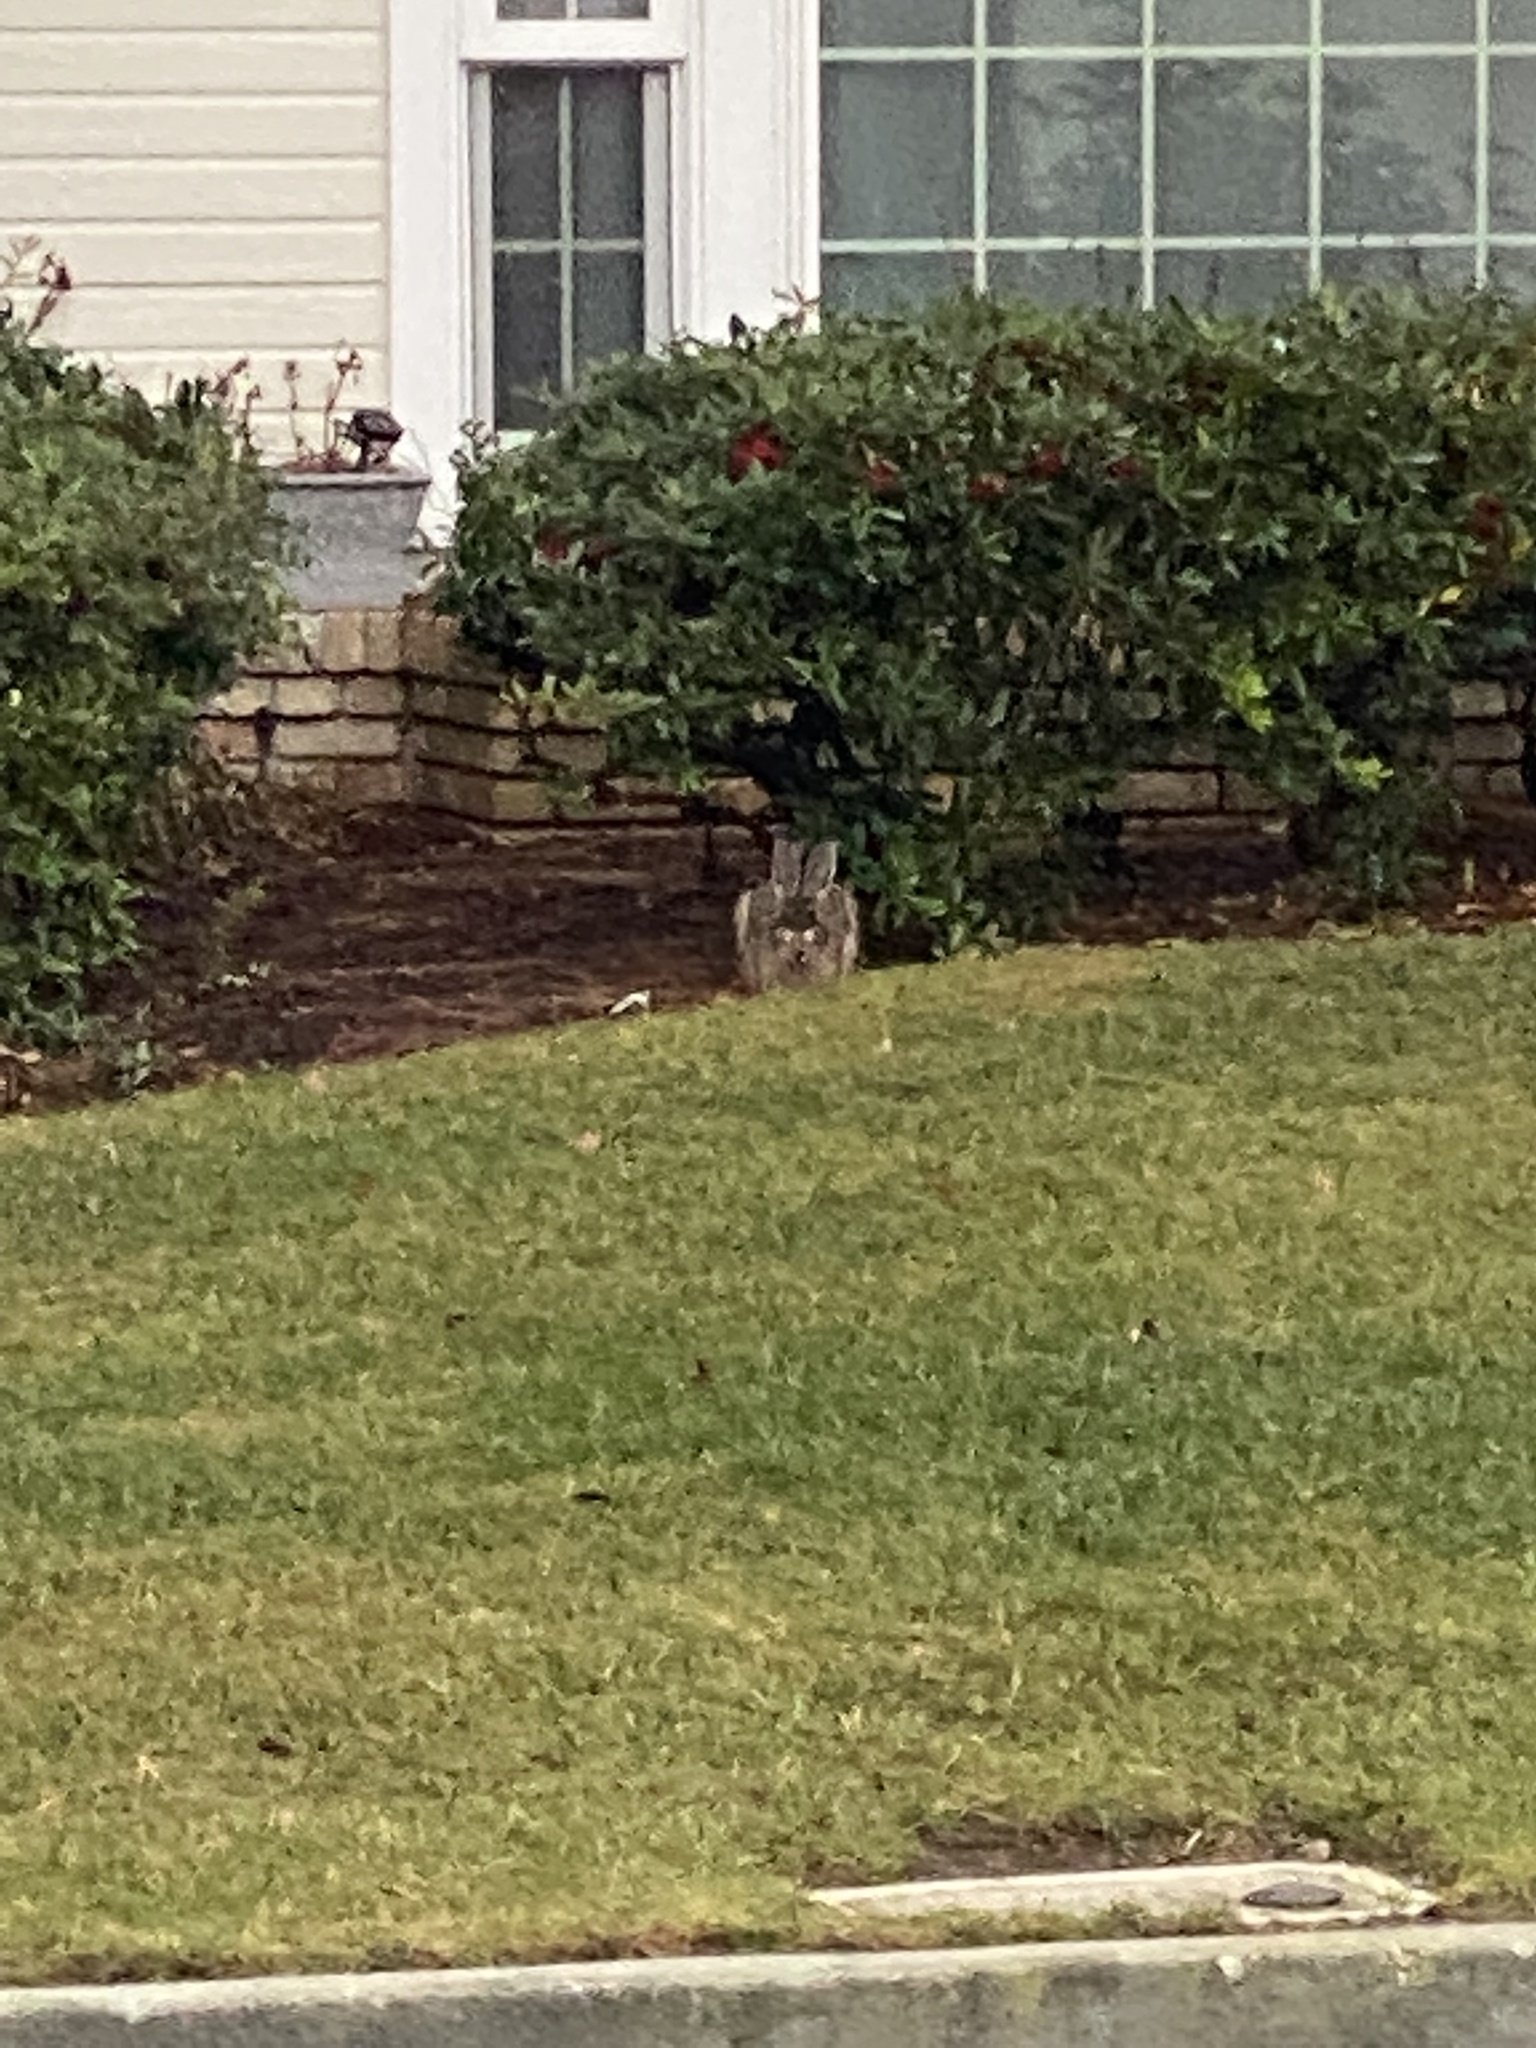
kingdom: Animalia
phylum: Chordata
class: Mammalia
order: Lagomorpha
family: Leporidae
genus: Lepus
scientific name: Lepus californicus
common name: Black-tailed jackrabbit
